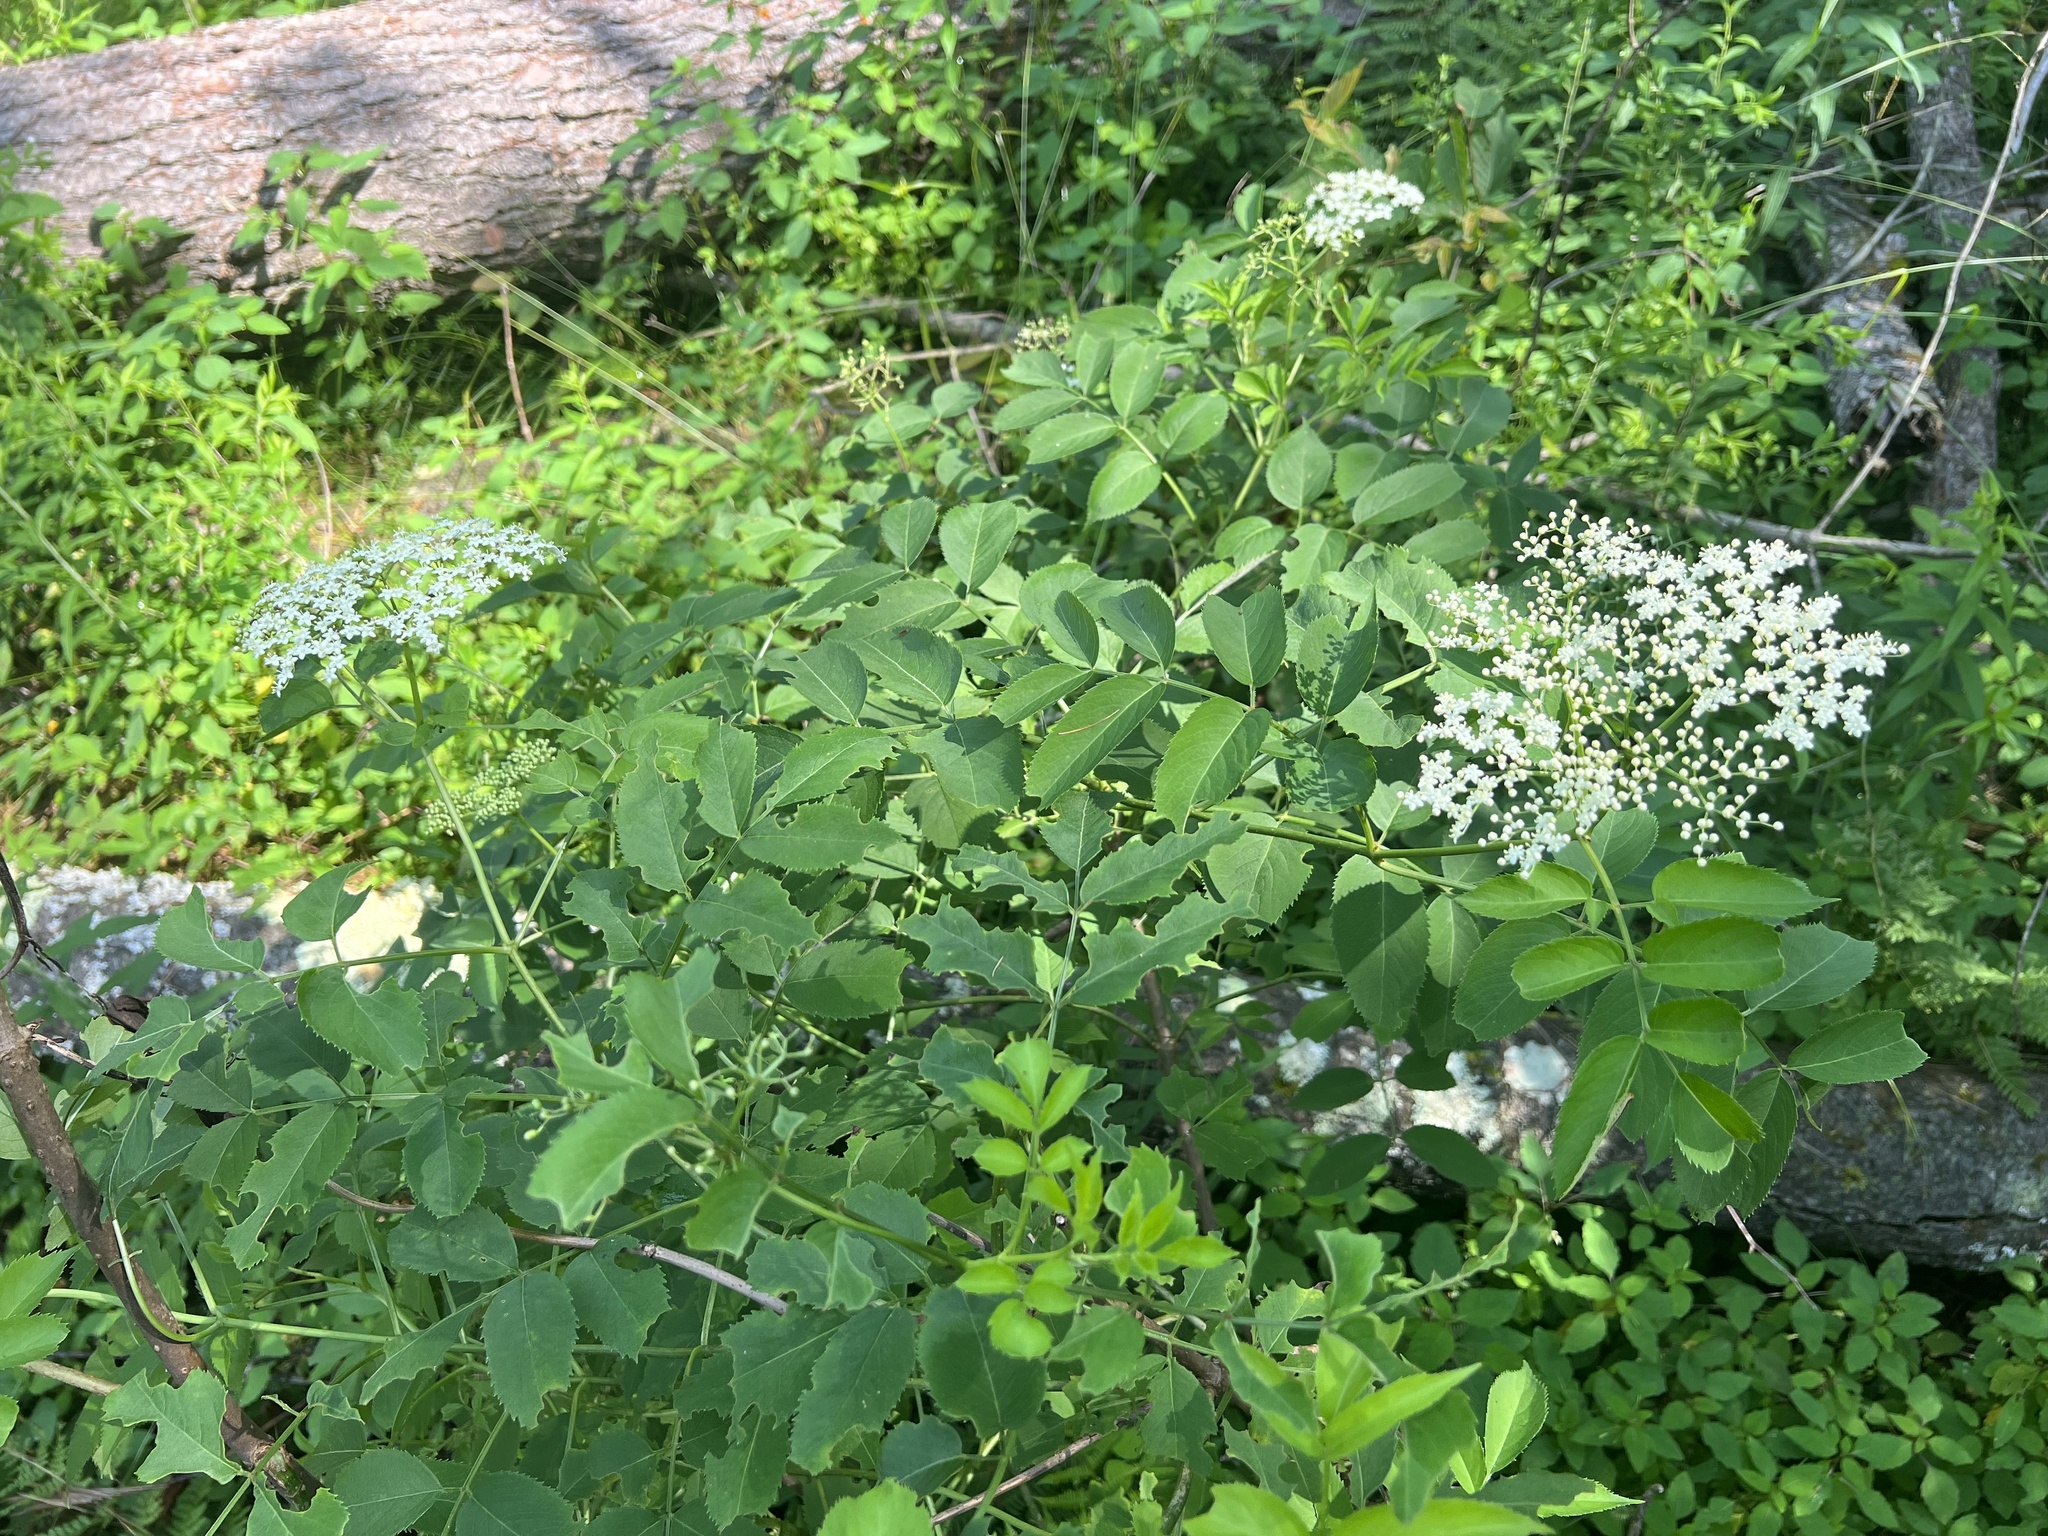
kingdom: Plantae
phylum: Tracheophyta
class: Magnoliopsida
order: Dipsacales
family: Viburnaceae
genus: Sambucus
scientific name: Sambucus canadensis
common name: American elder
